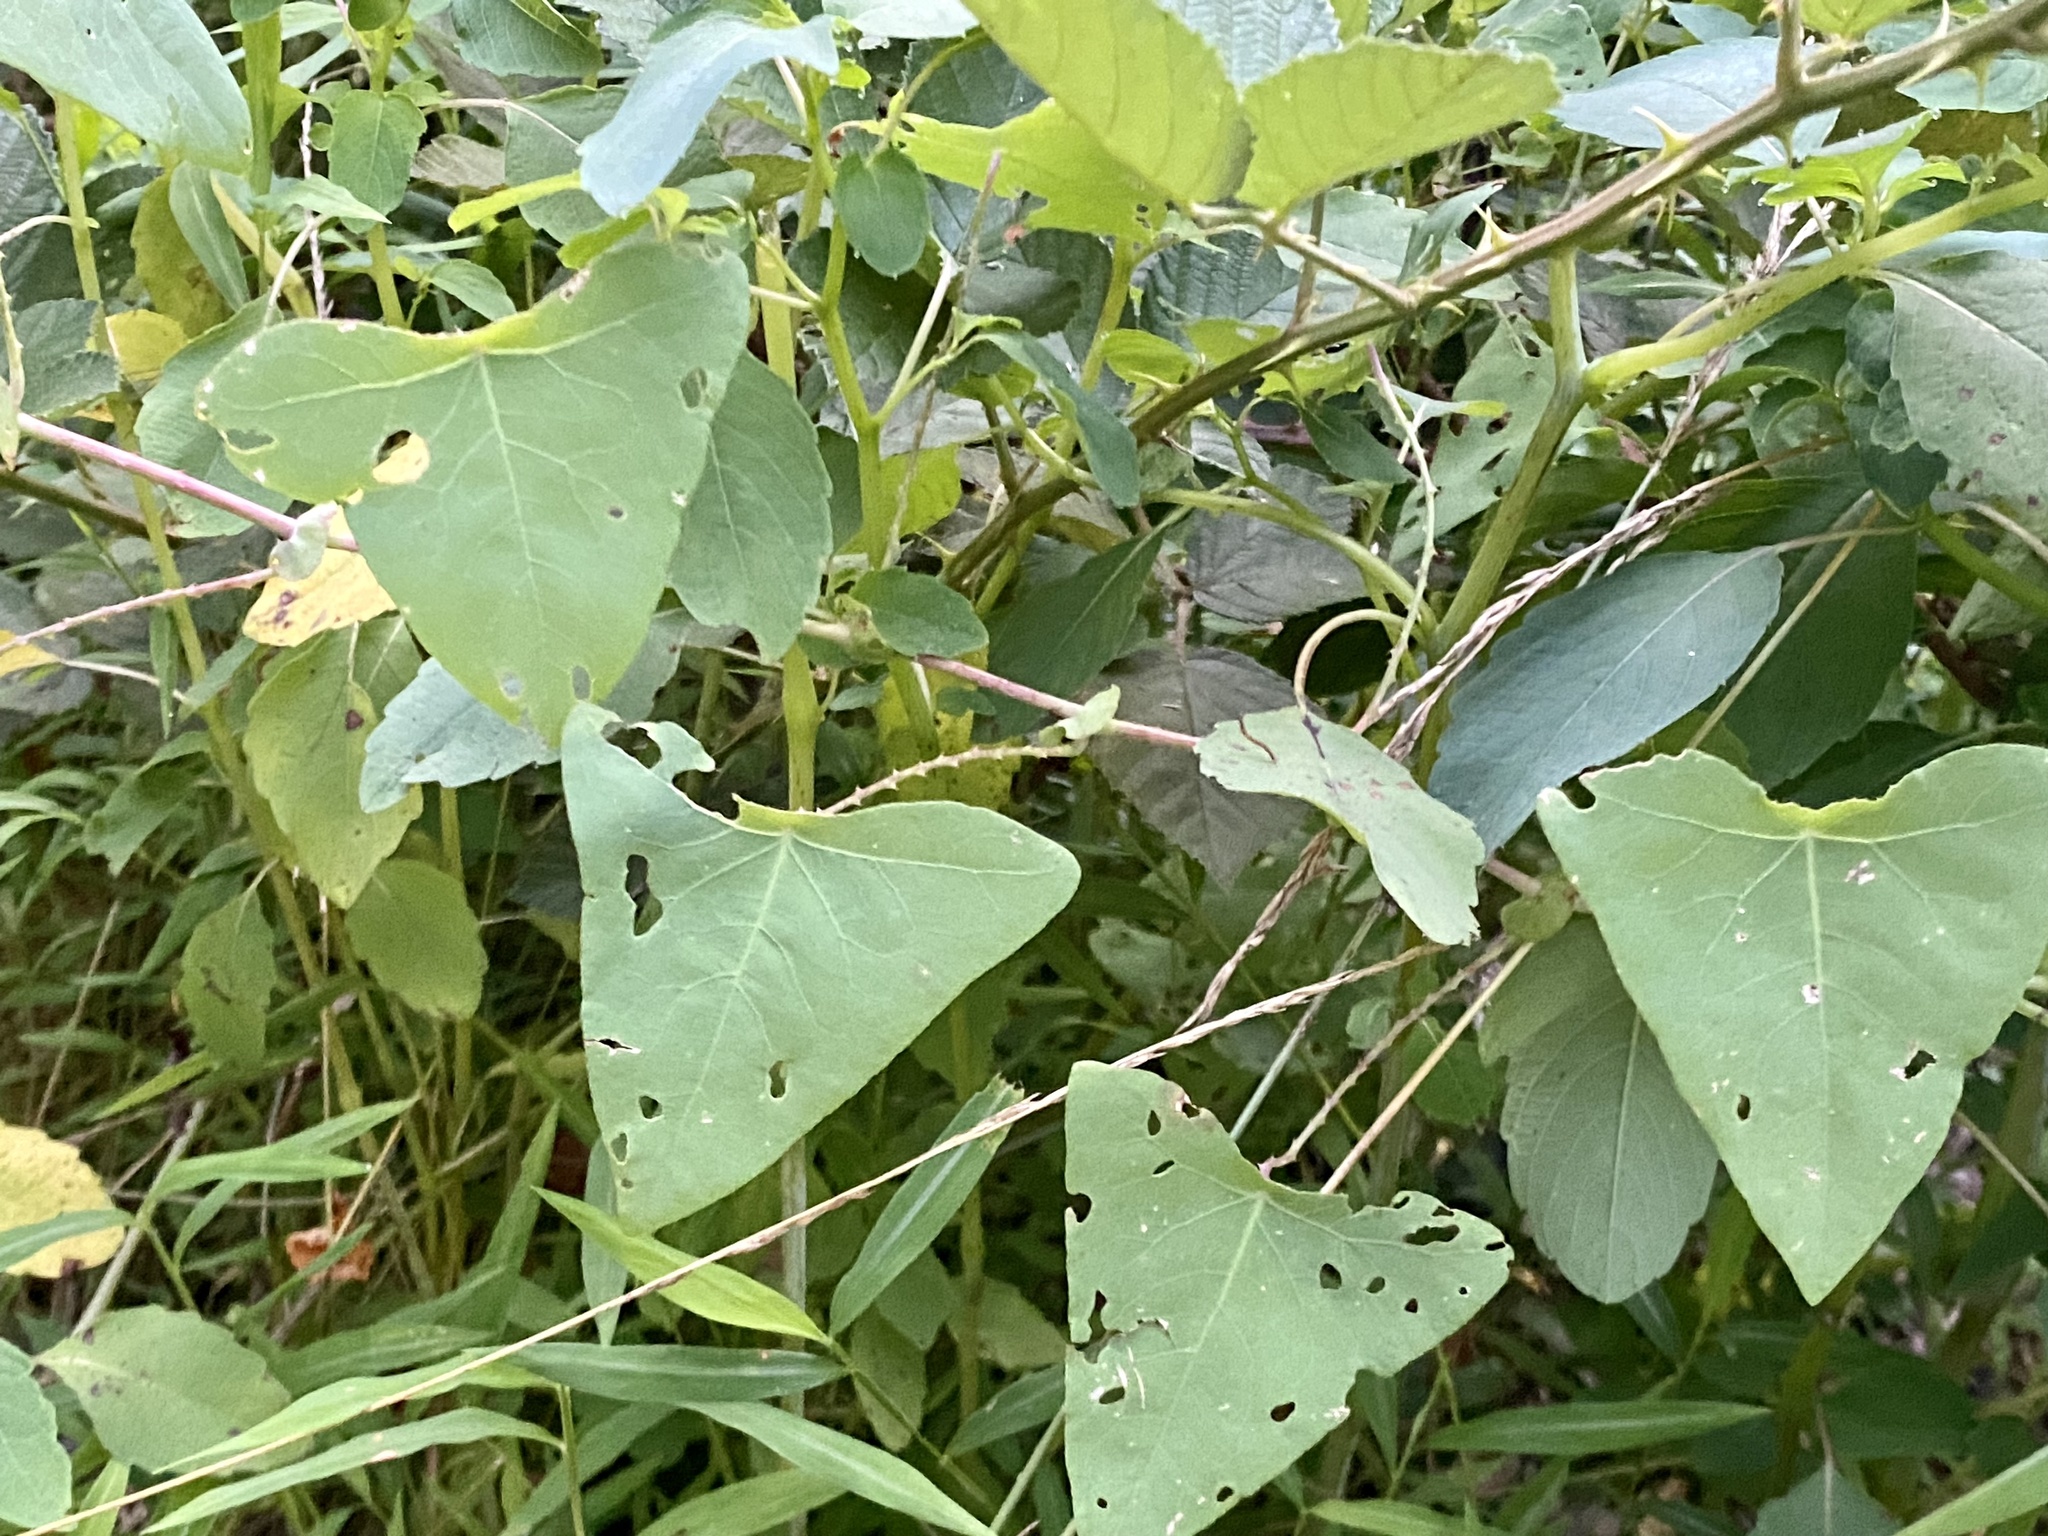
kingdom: Plantae
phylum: Tracheophyta
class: Magnoliopsida
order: Caryophyllales
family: Polygonaceae
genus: Persicaria
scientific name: Persicaria perfoliata
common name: Asiatic tearthumb
